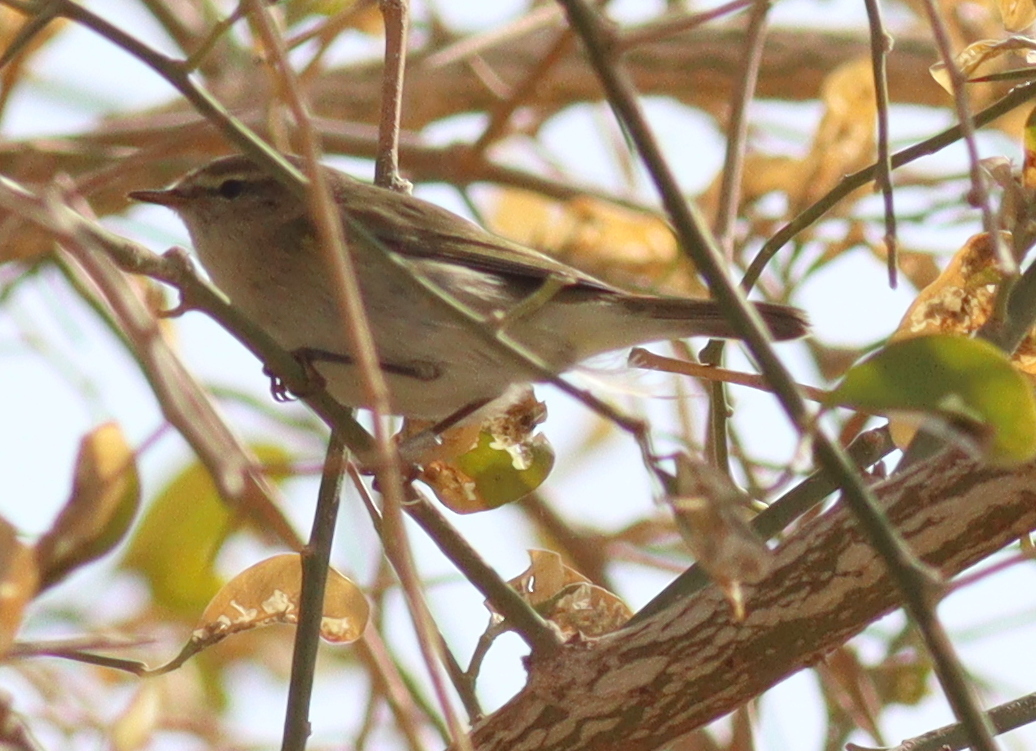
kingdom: Animalia
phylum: Chordata
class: Aves
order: Passeriformes
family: Phylloscopidae
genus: Phylloscopus
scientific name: Phylloscopus collybita
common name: Common chiffchaff
